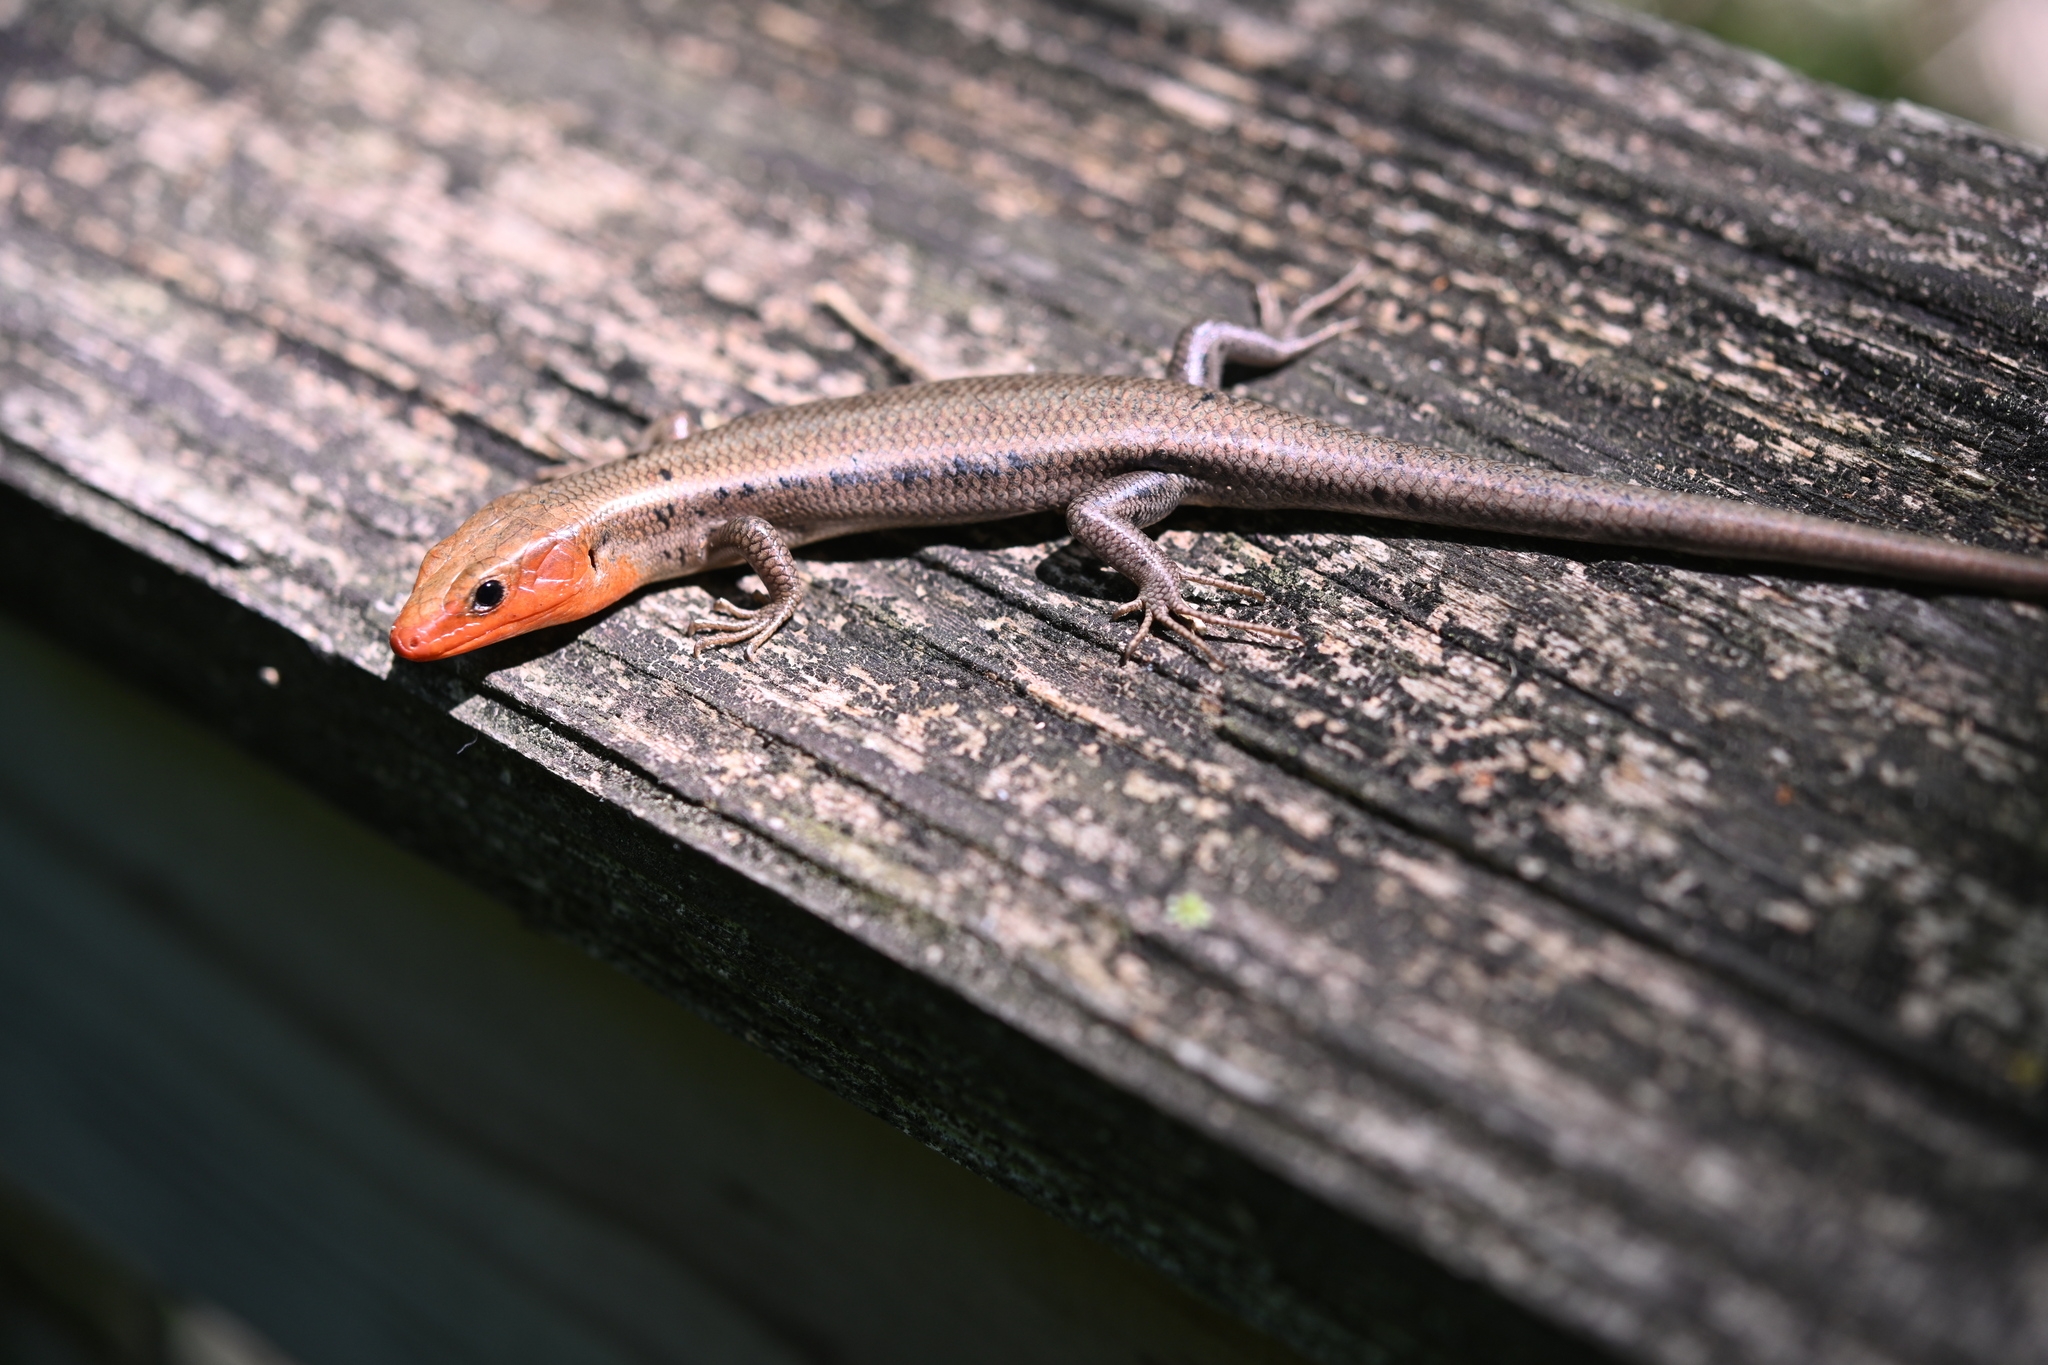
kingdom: Animalia
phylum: Chordata
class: Squamata
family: Scincidae
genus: Plestiodon
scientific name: Plestiodon fasciatus
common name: Five-lined skink
